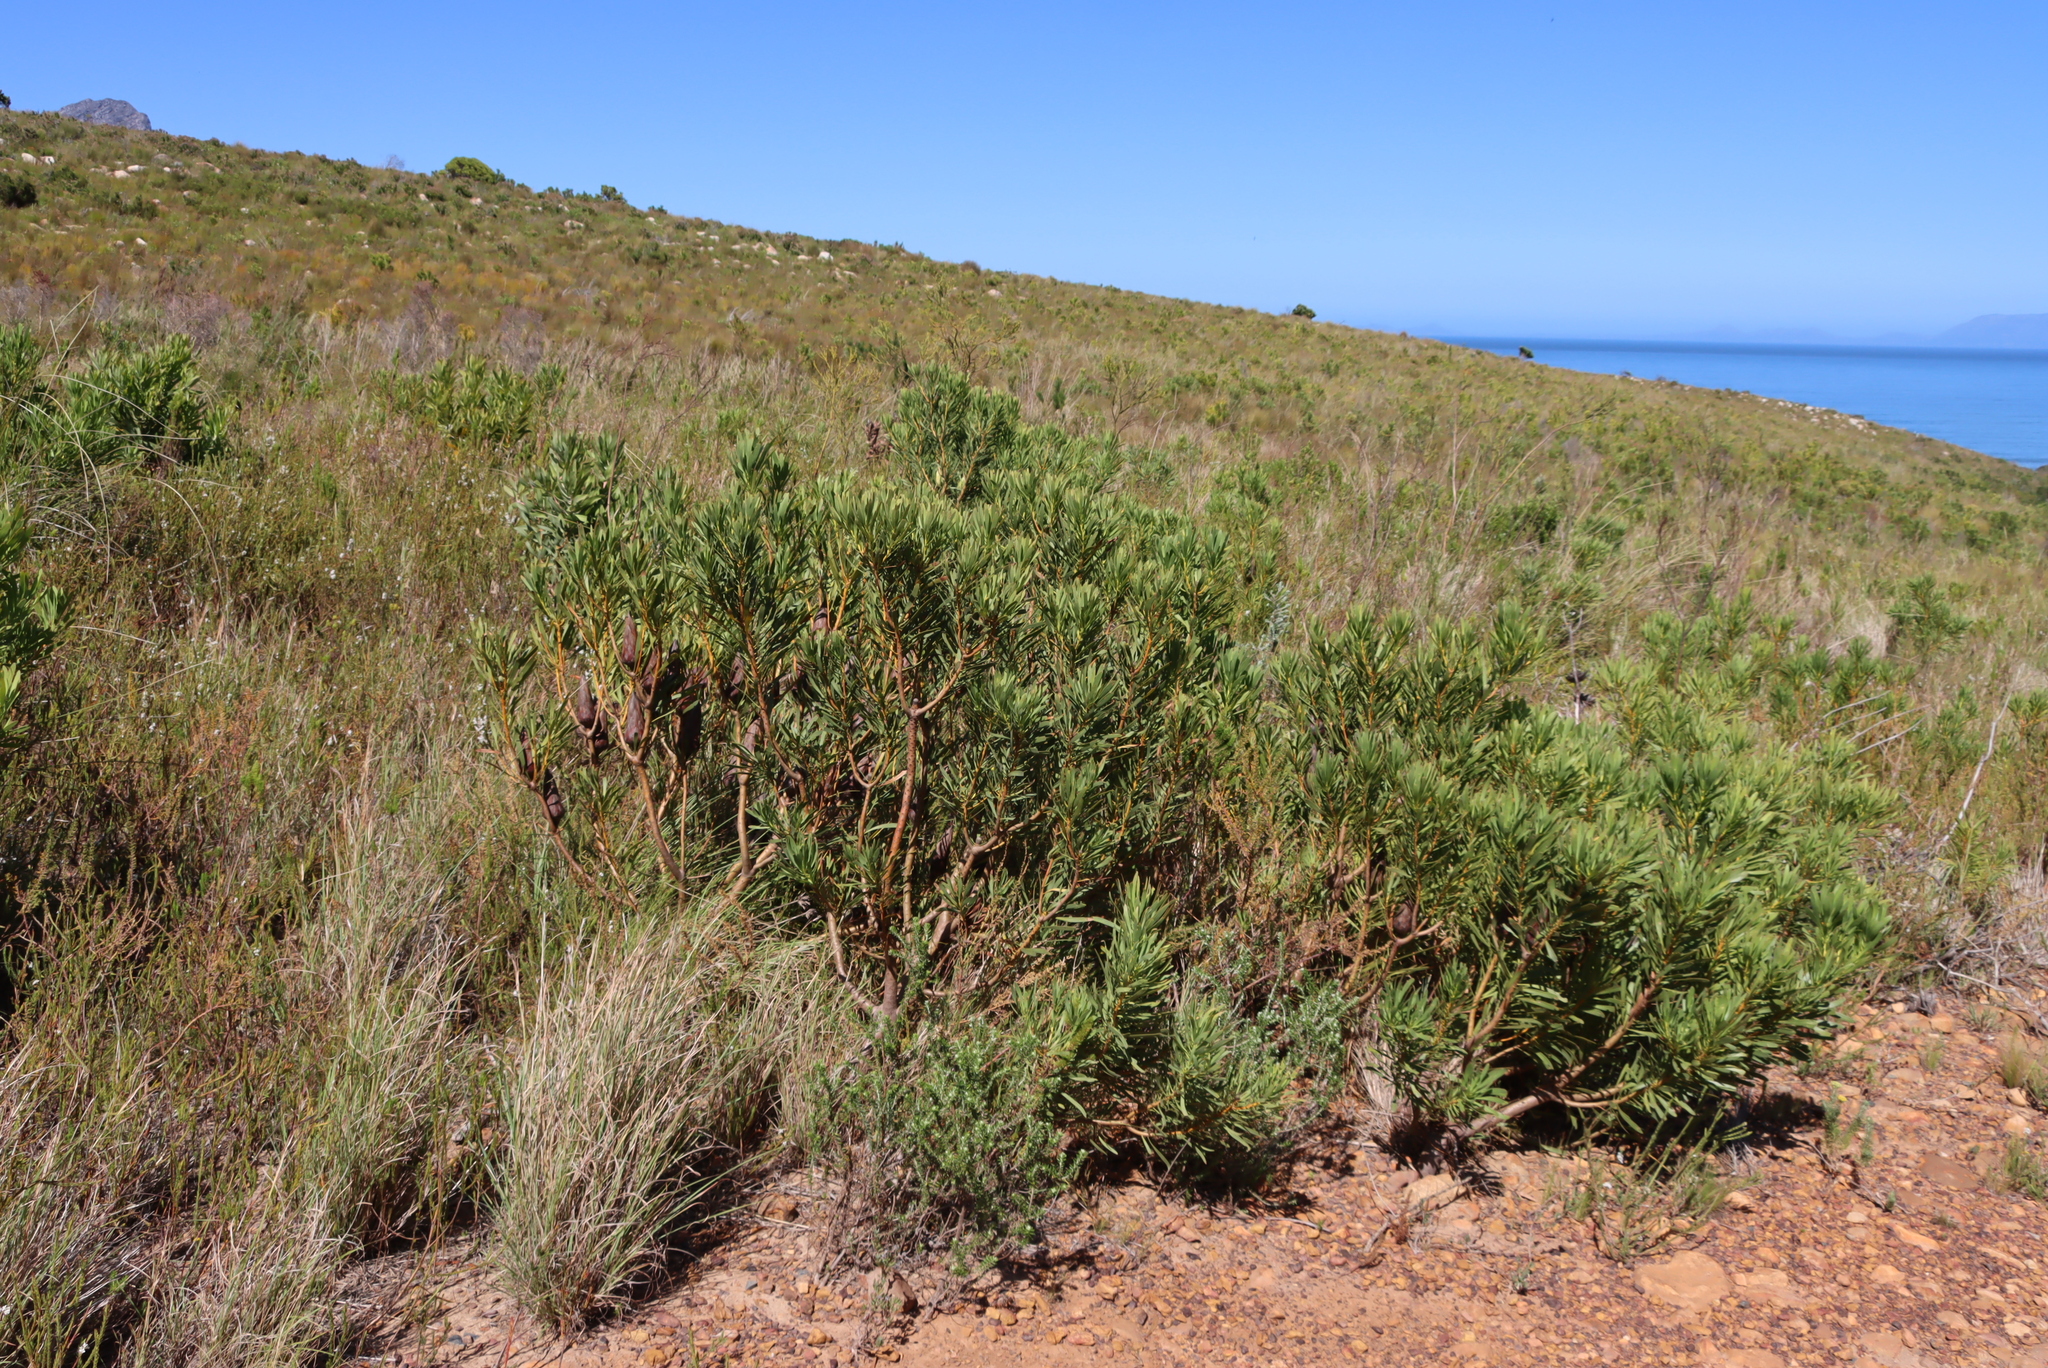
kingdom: Plantae
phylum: Tracheophyta
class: Magnoliopsida
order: Proteales
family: Proteaceae
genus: Protea
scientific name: Protea repens
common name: Sugarbush
